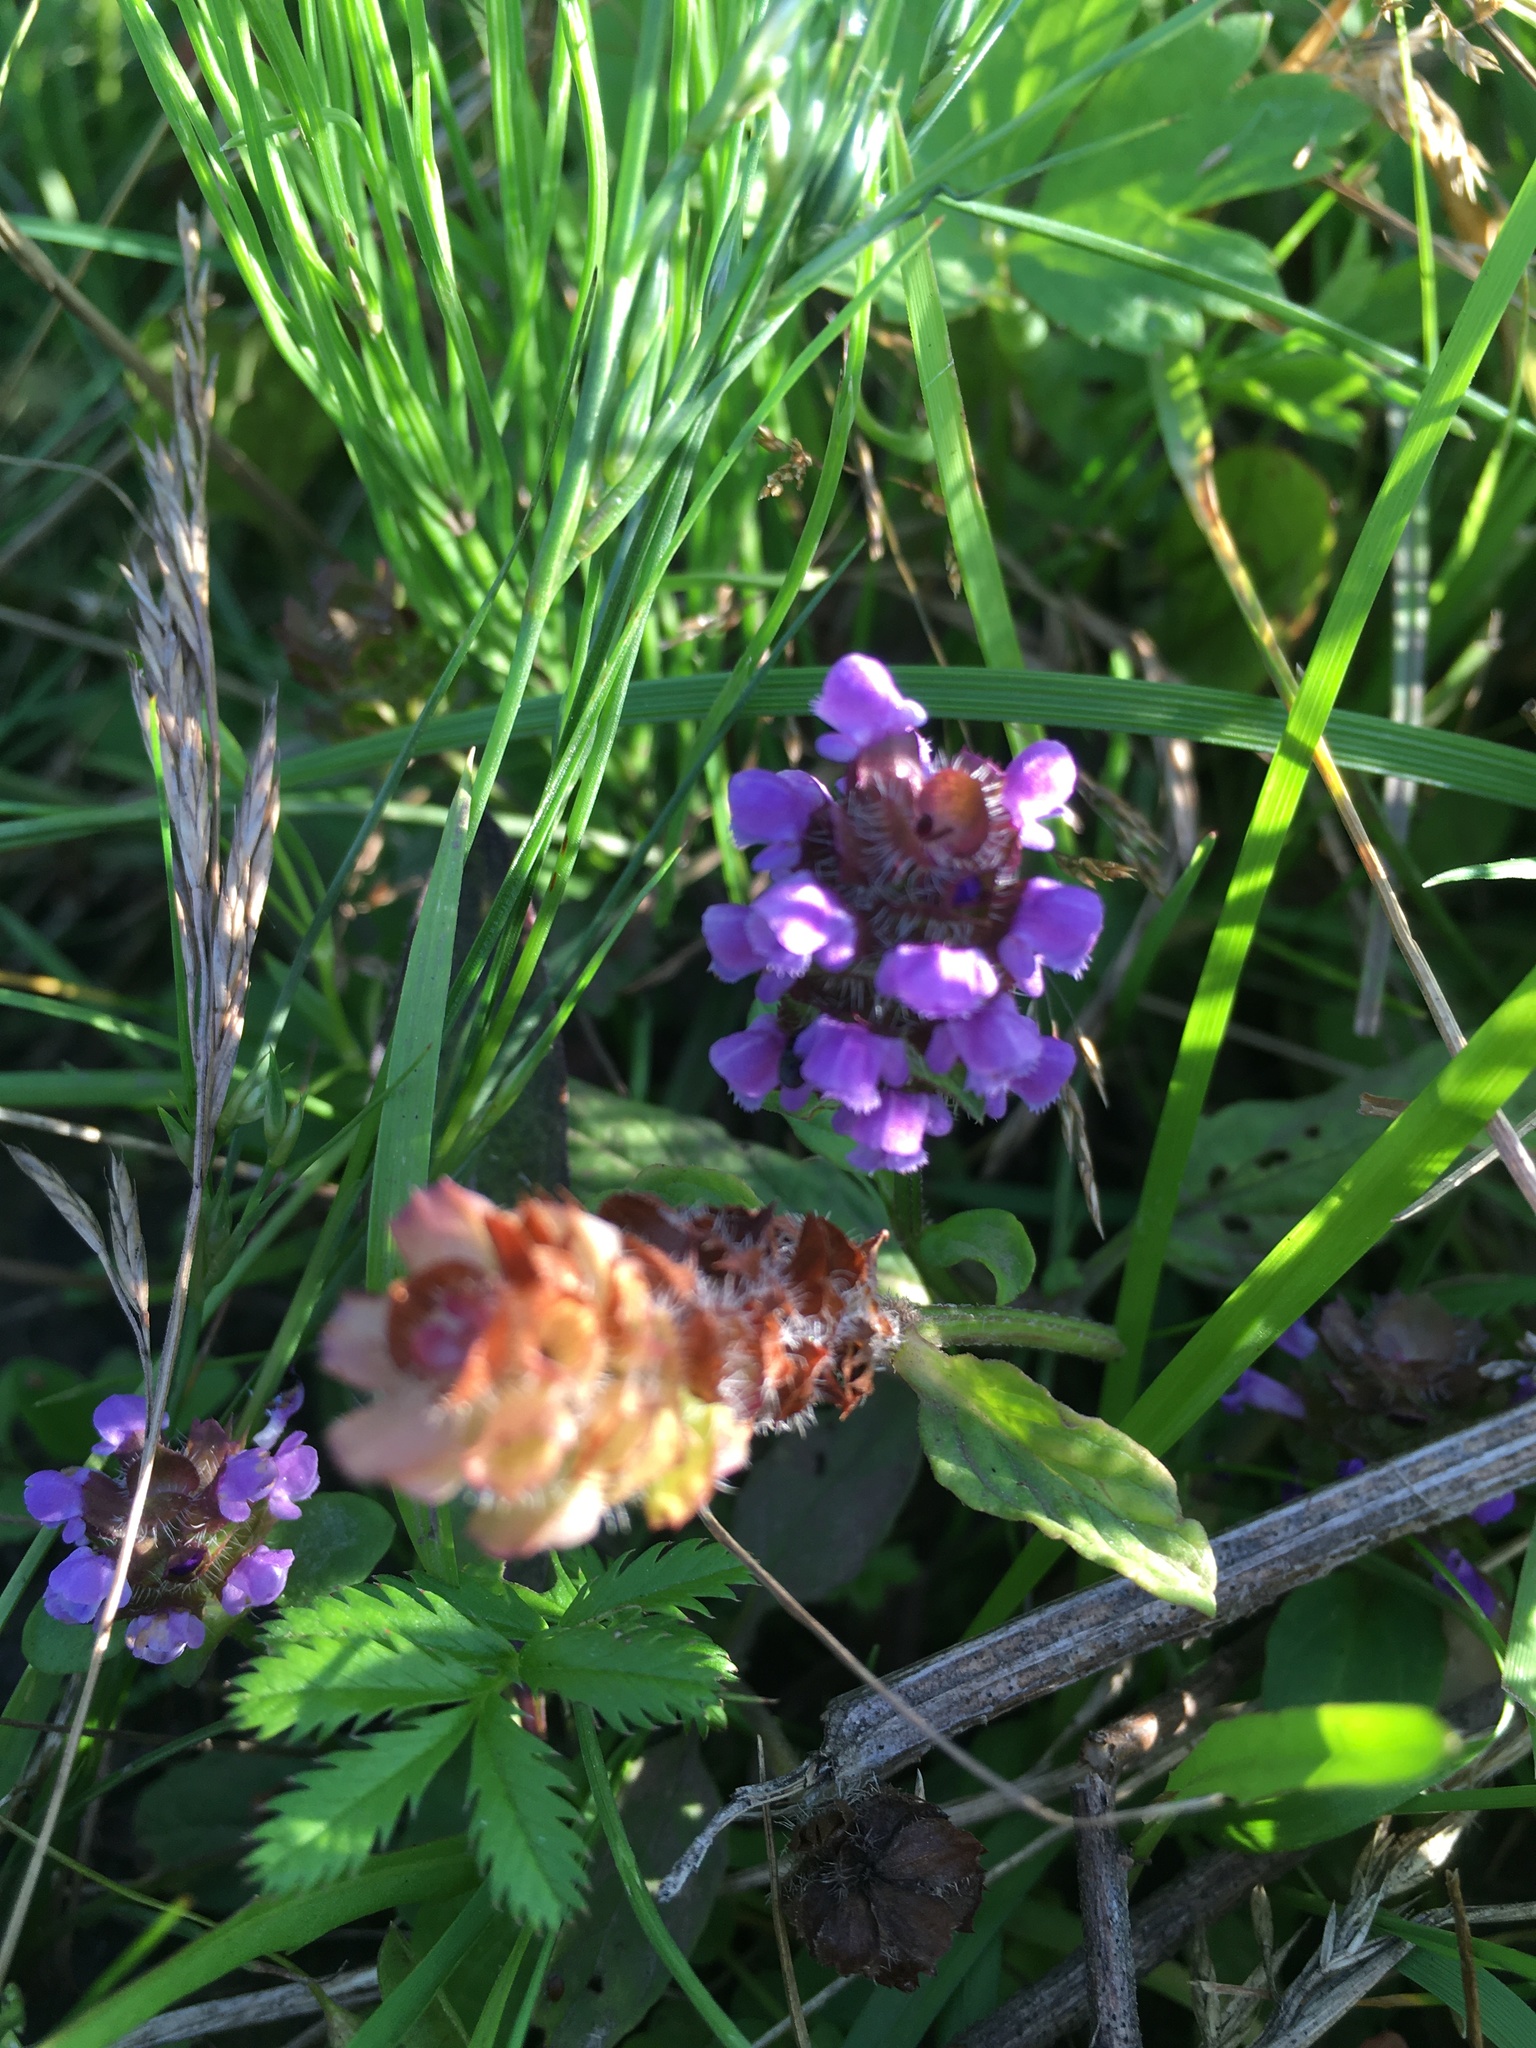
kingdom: Plantae
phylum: Tracheophyta
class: Magnoliopsida
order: Lamiales
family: Lamiaceae
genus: Prunella
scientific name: Prunella vulgaris
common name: Heal-all
